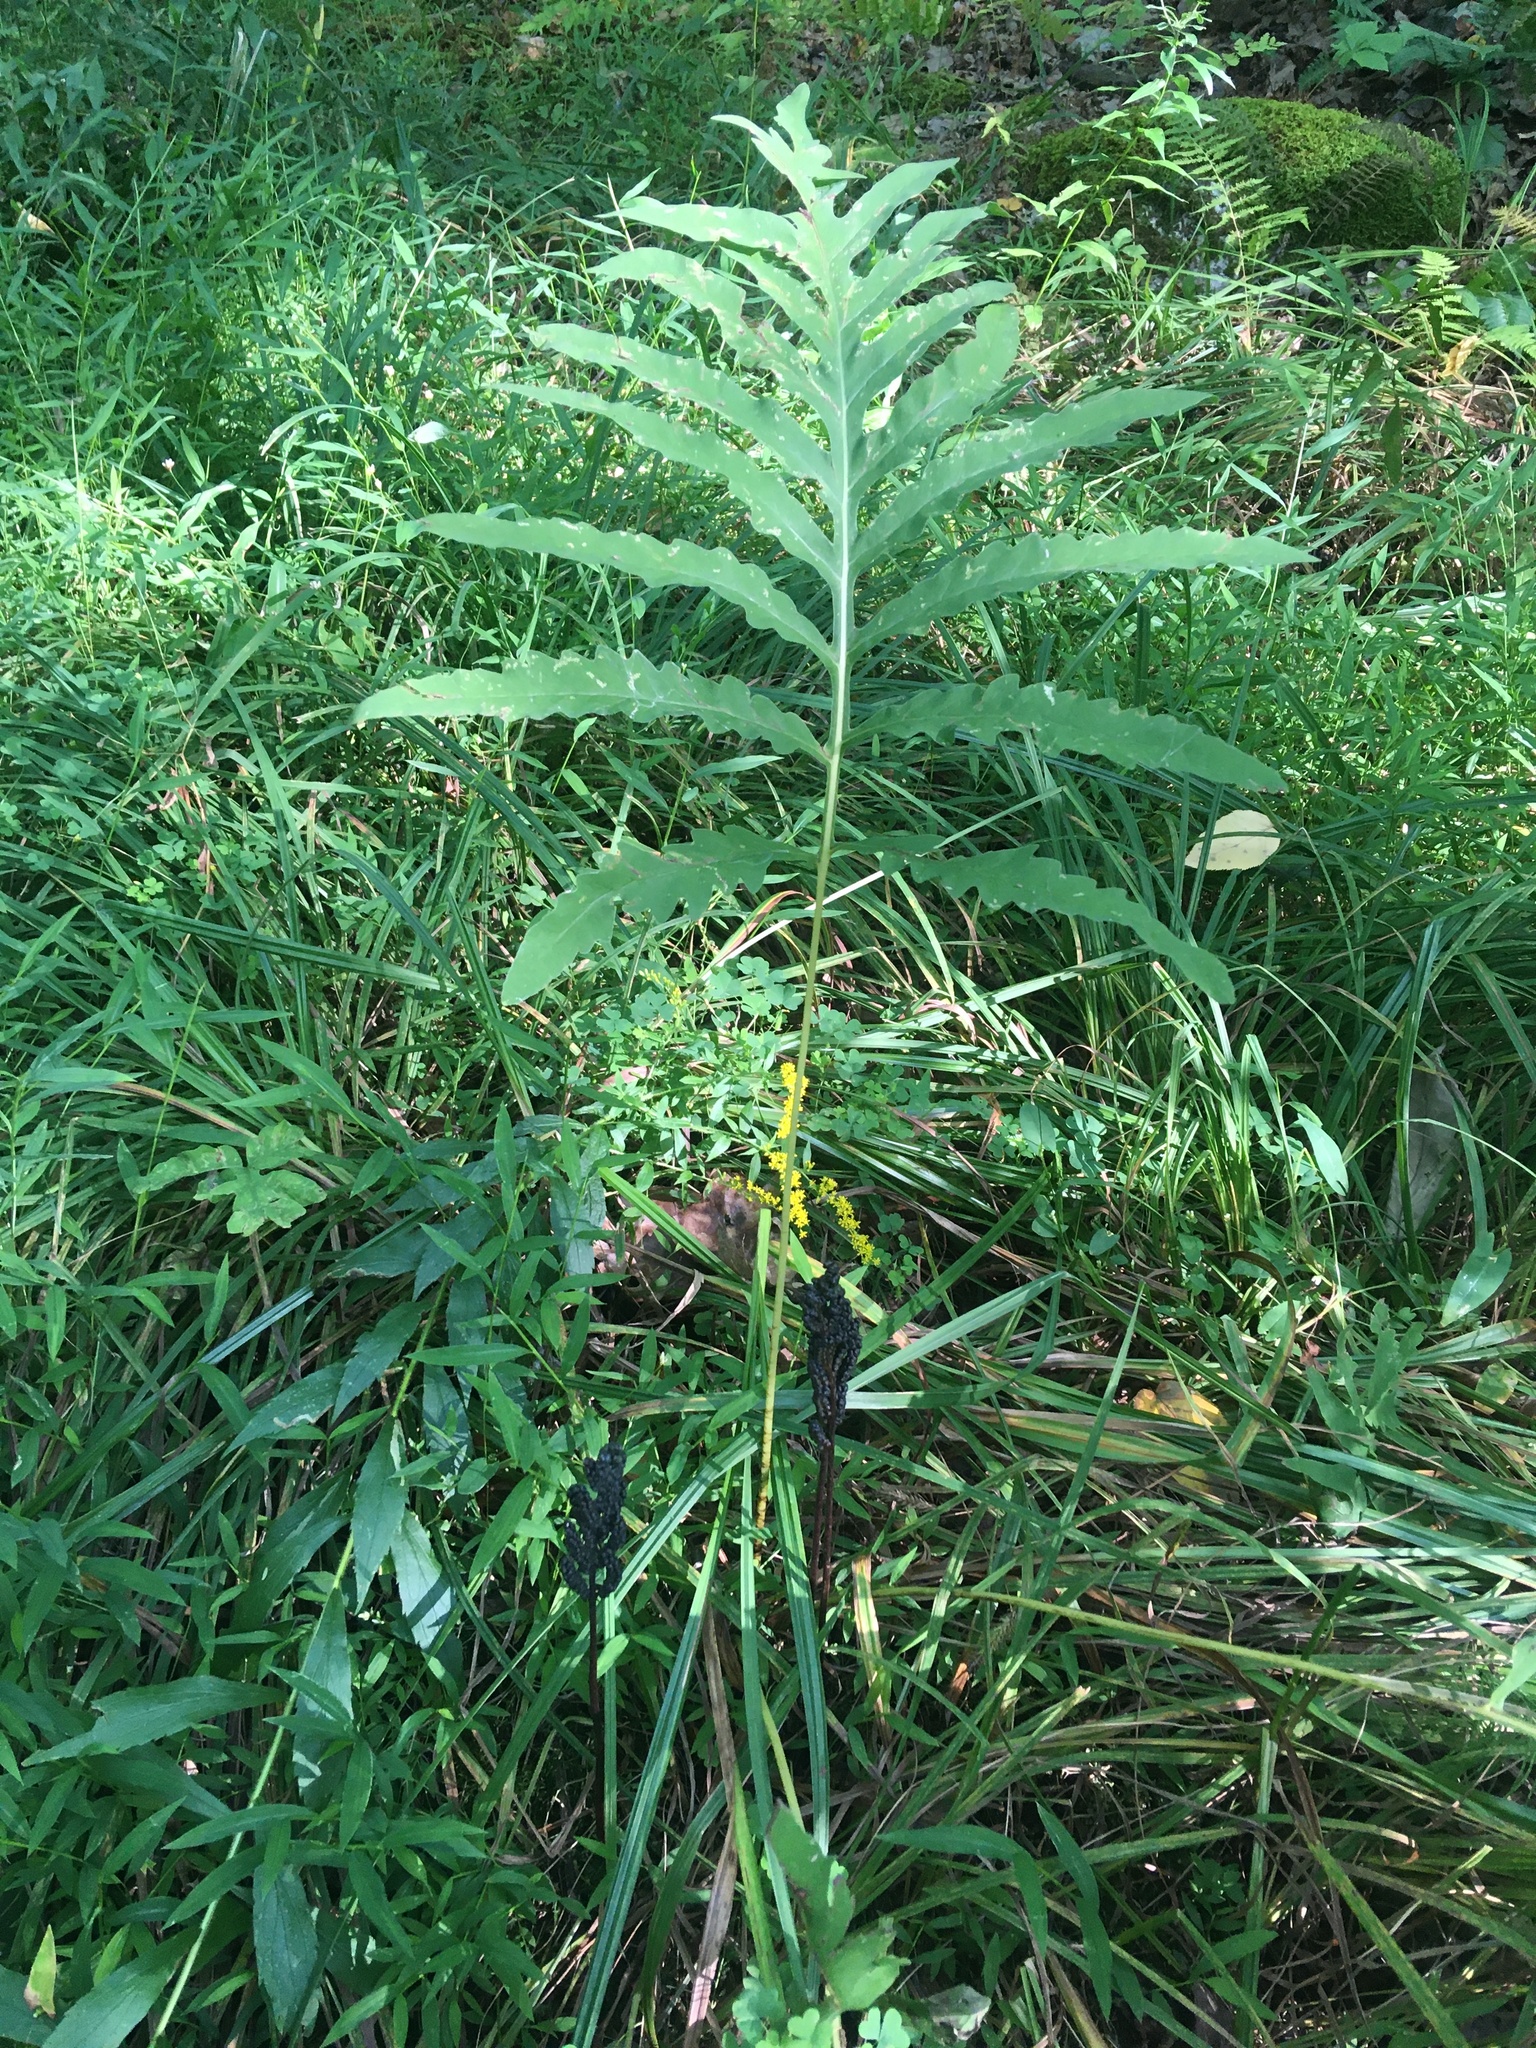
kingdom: Plantae
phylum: Tracheophyta
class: Polypodiopsida
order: Polypodiales
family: Onocleaceae
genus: Onoclea
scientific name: Onoclea sensibilis
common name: Sensitive fern
